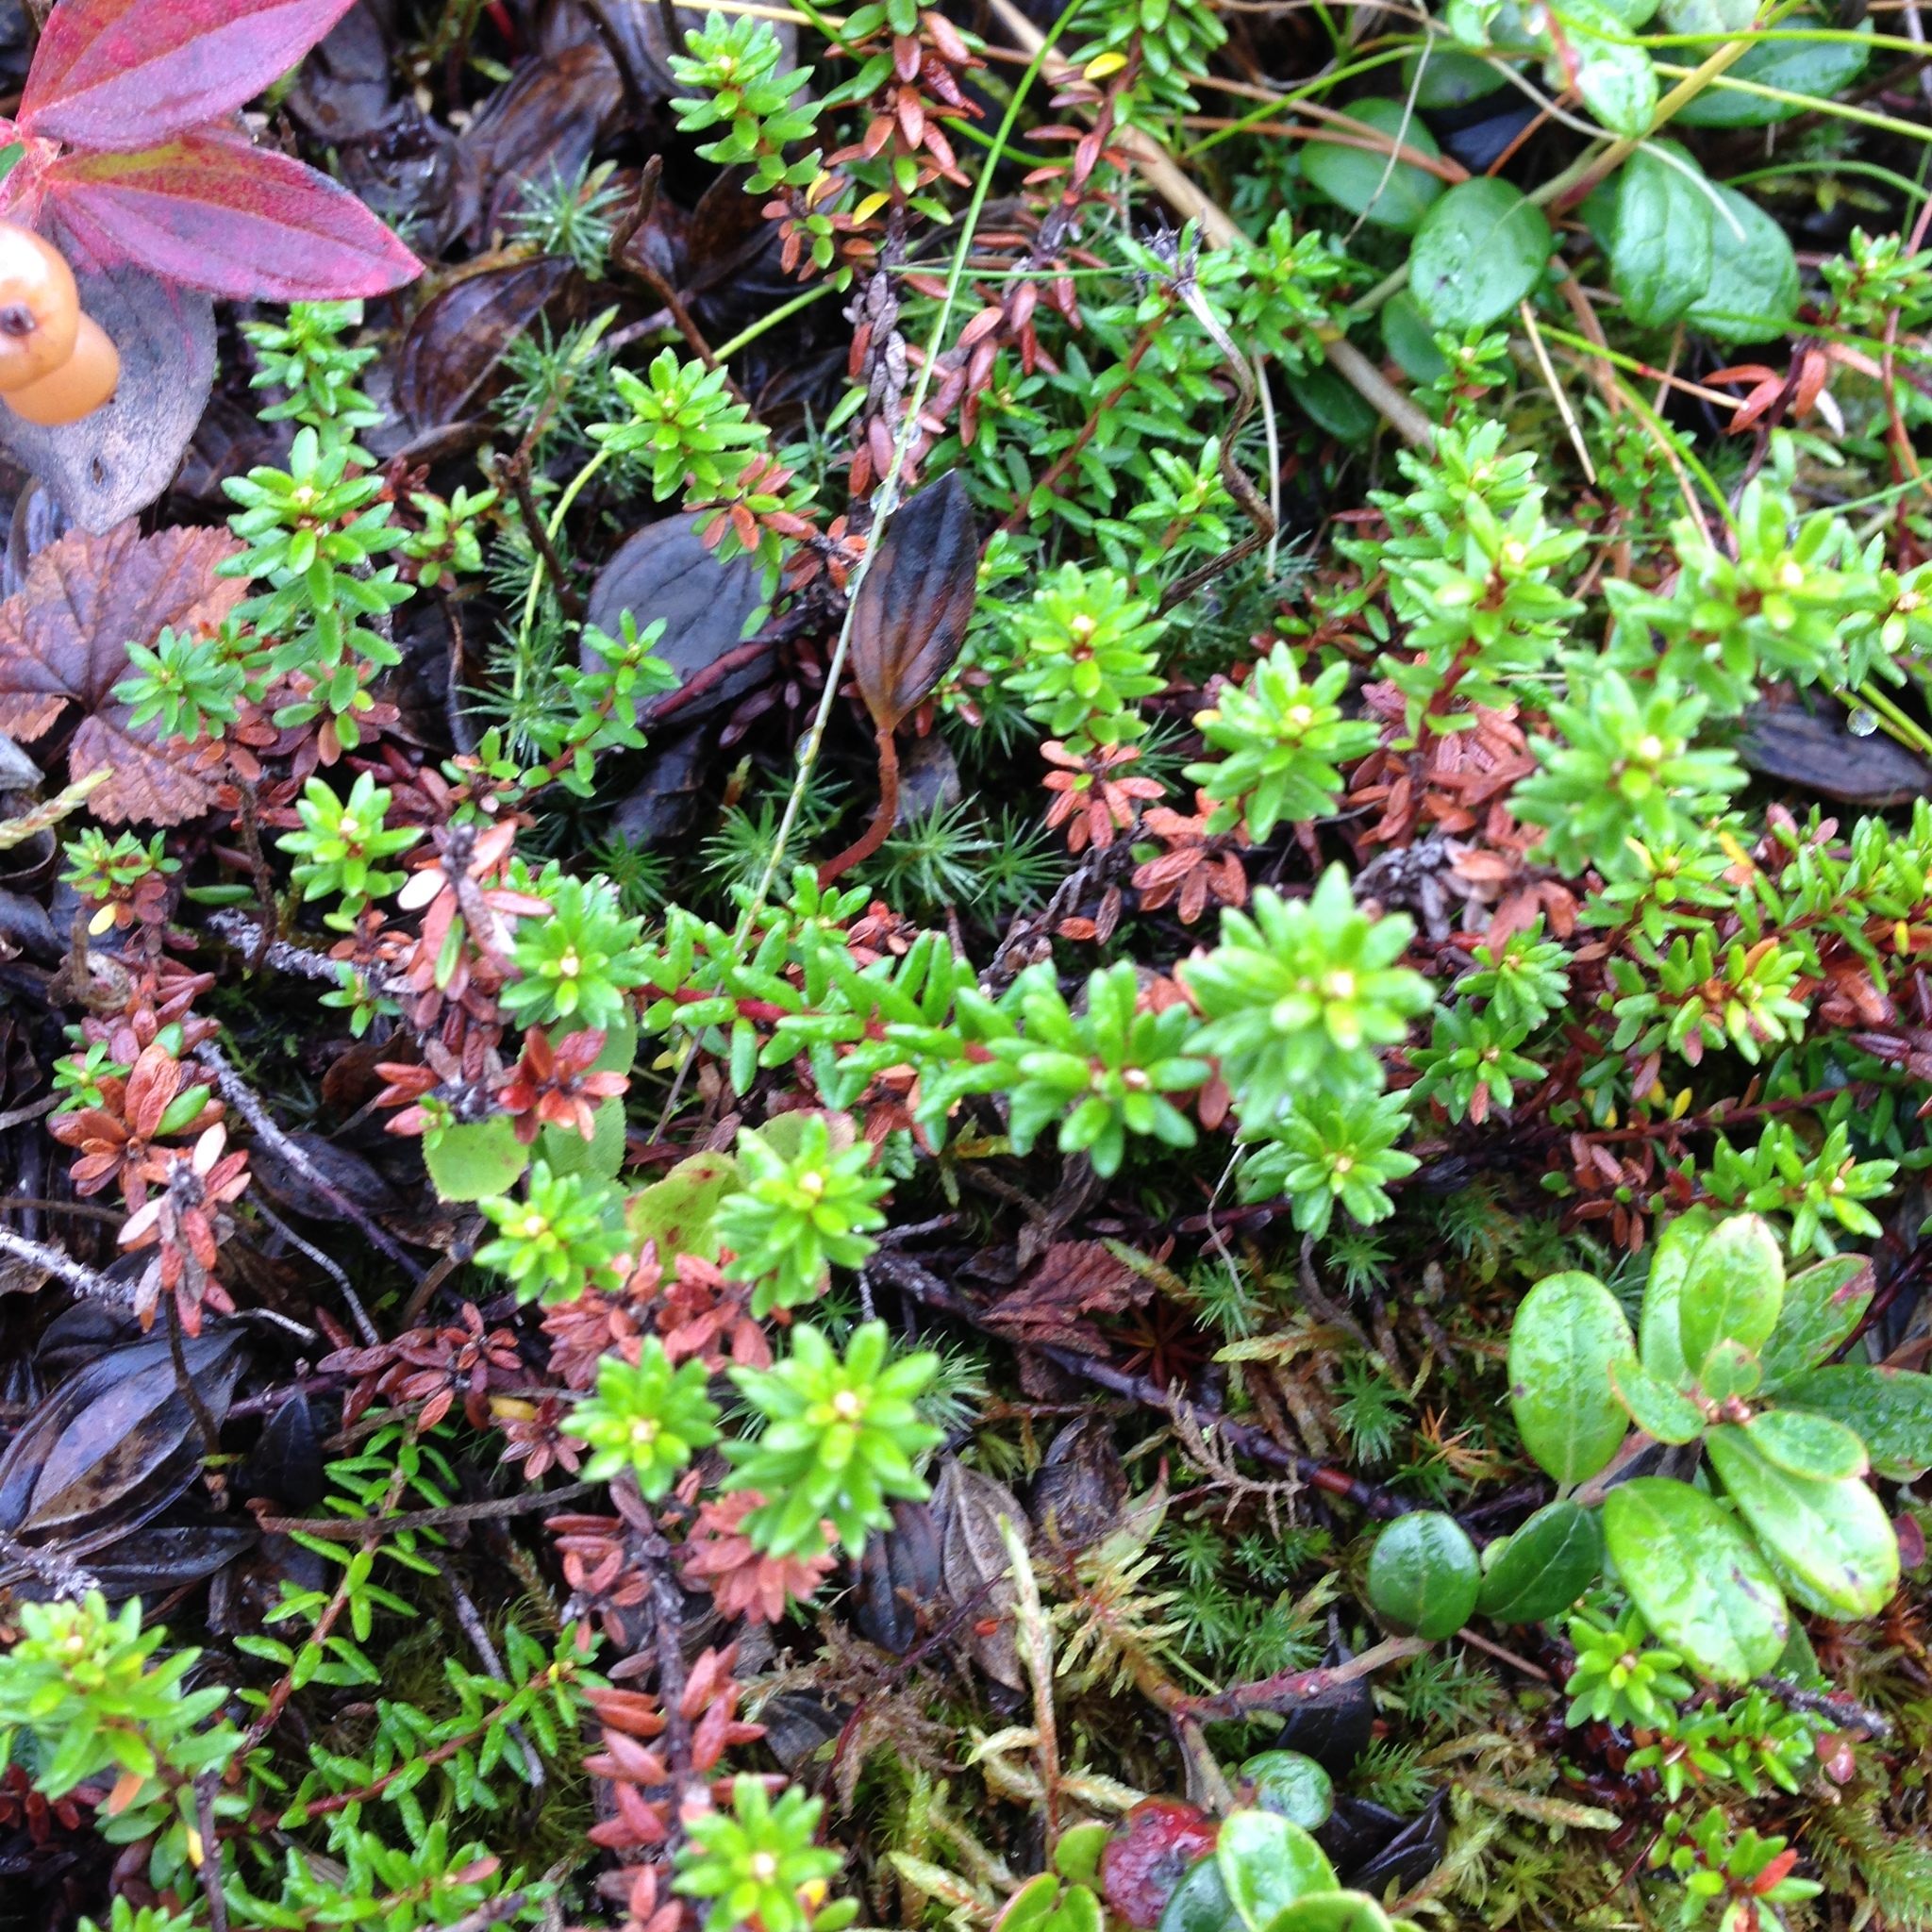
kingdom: Plantae
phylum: Tracheophyta
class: Magnoliopsida
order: Ericales
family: Ericaceae
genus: Empetrum
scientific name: Empetrum nigrum
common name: Black crowberry
